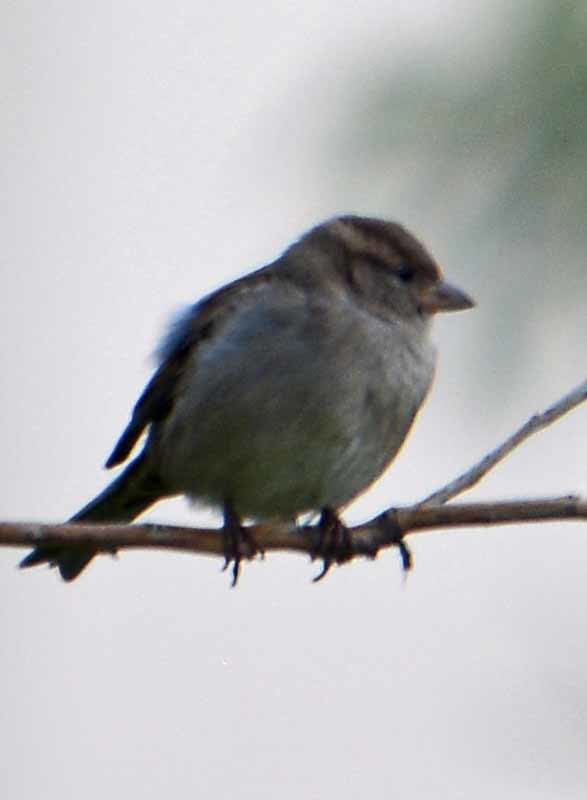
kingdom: Animalia
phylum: Chordata
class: Aves
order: Passeriformes
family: Passeridae
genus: Passer
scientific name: Passer domesticus
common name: House sparrow
